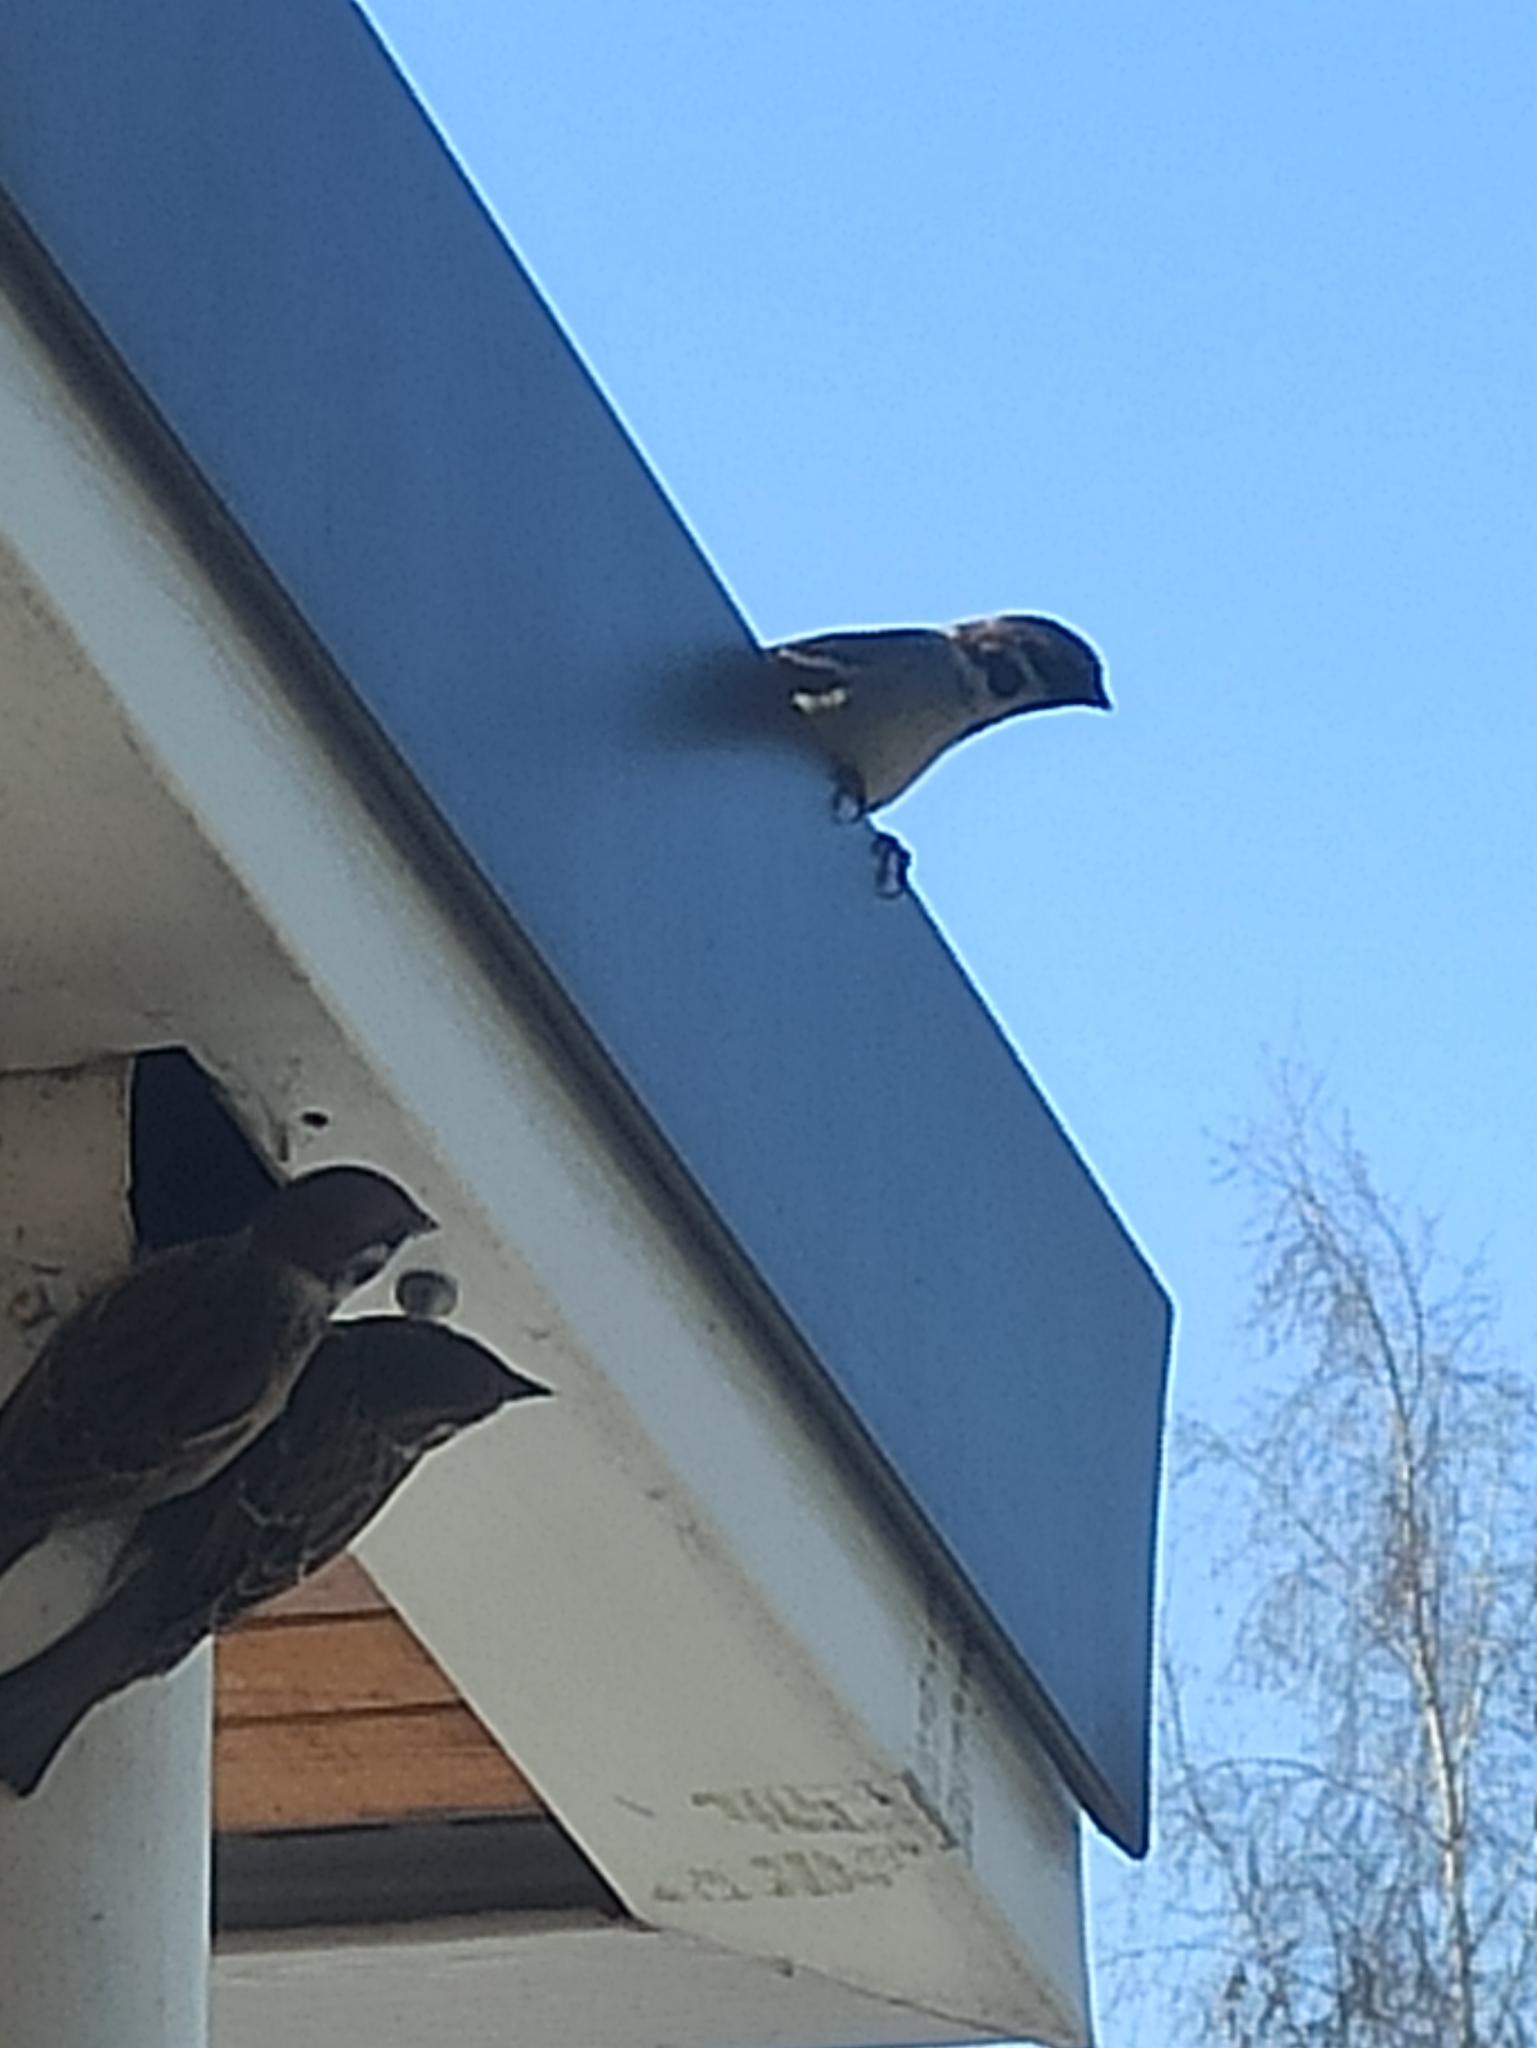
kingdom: Animalia
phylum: Chordata
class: Aves
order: Passeriformes
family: Passeridae
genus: Passer
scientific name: Passer montanus
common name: Eurasian tree sparrow
